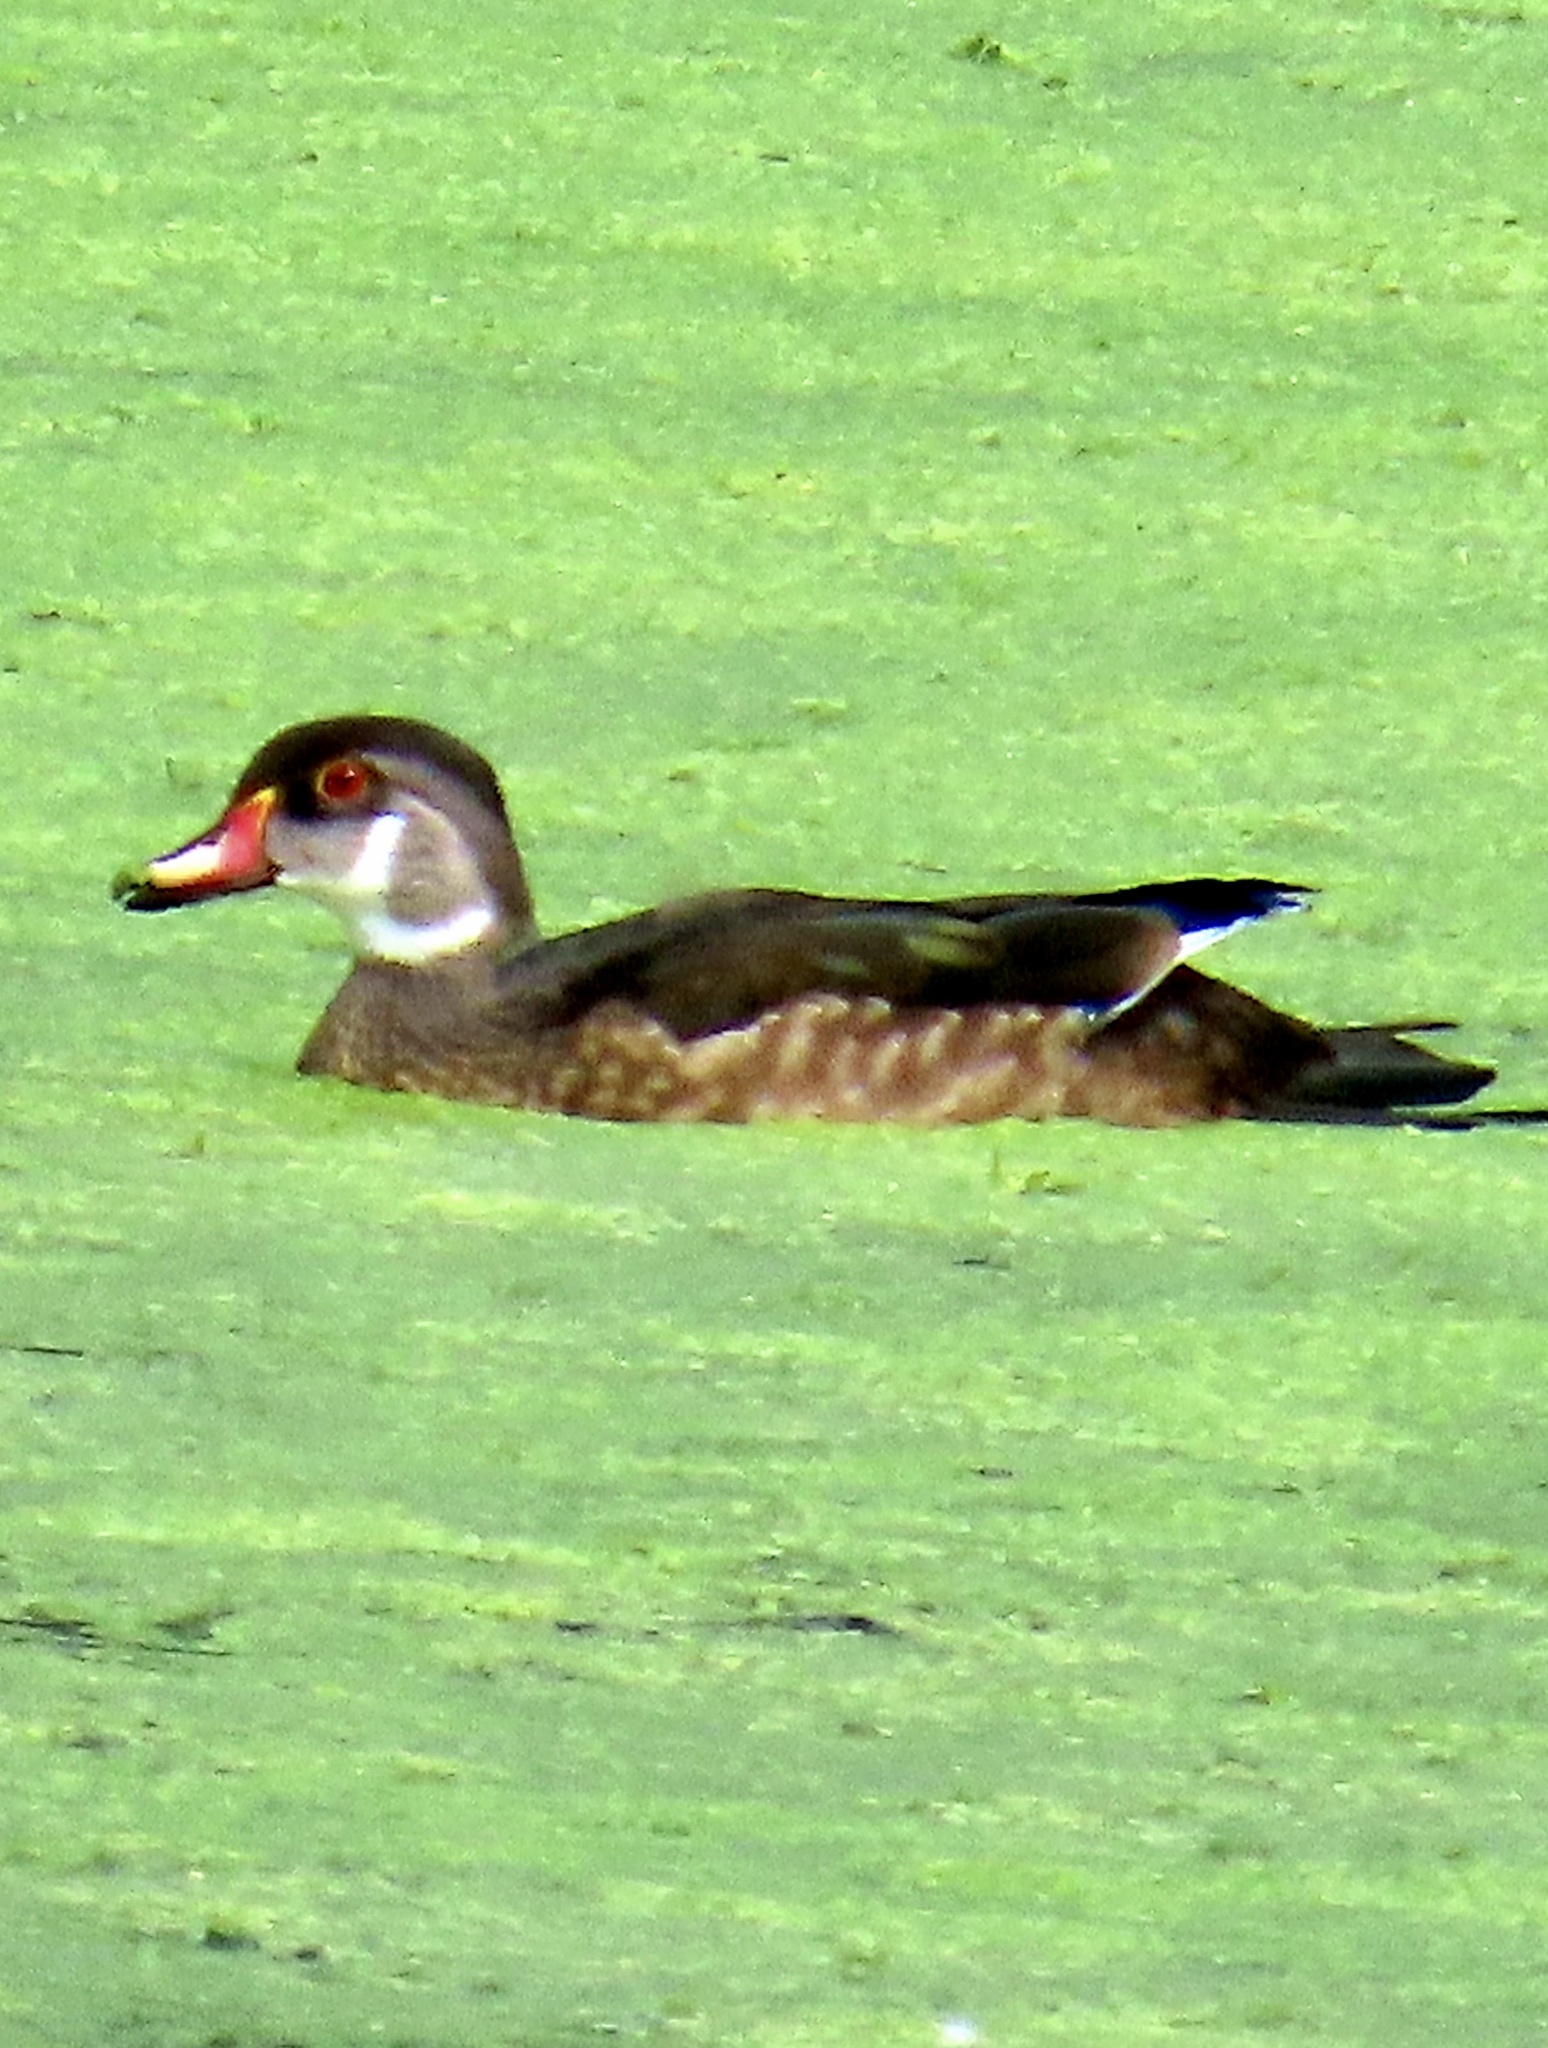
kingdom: Animalia
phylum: Chordata
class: Aves
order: Anseriformes
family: Anatidae
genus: Aix
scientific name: Aix sponsa
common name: Wood duck
